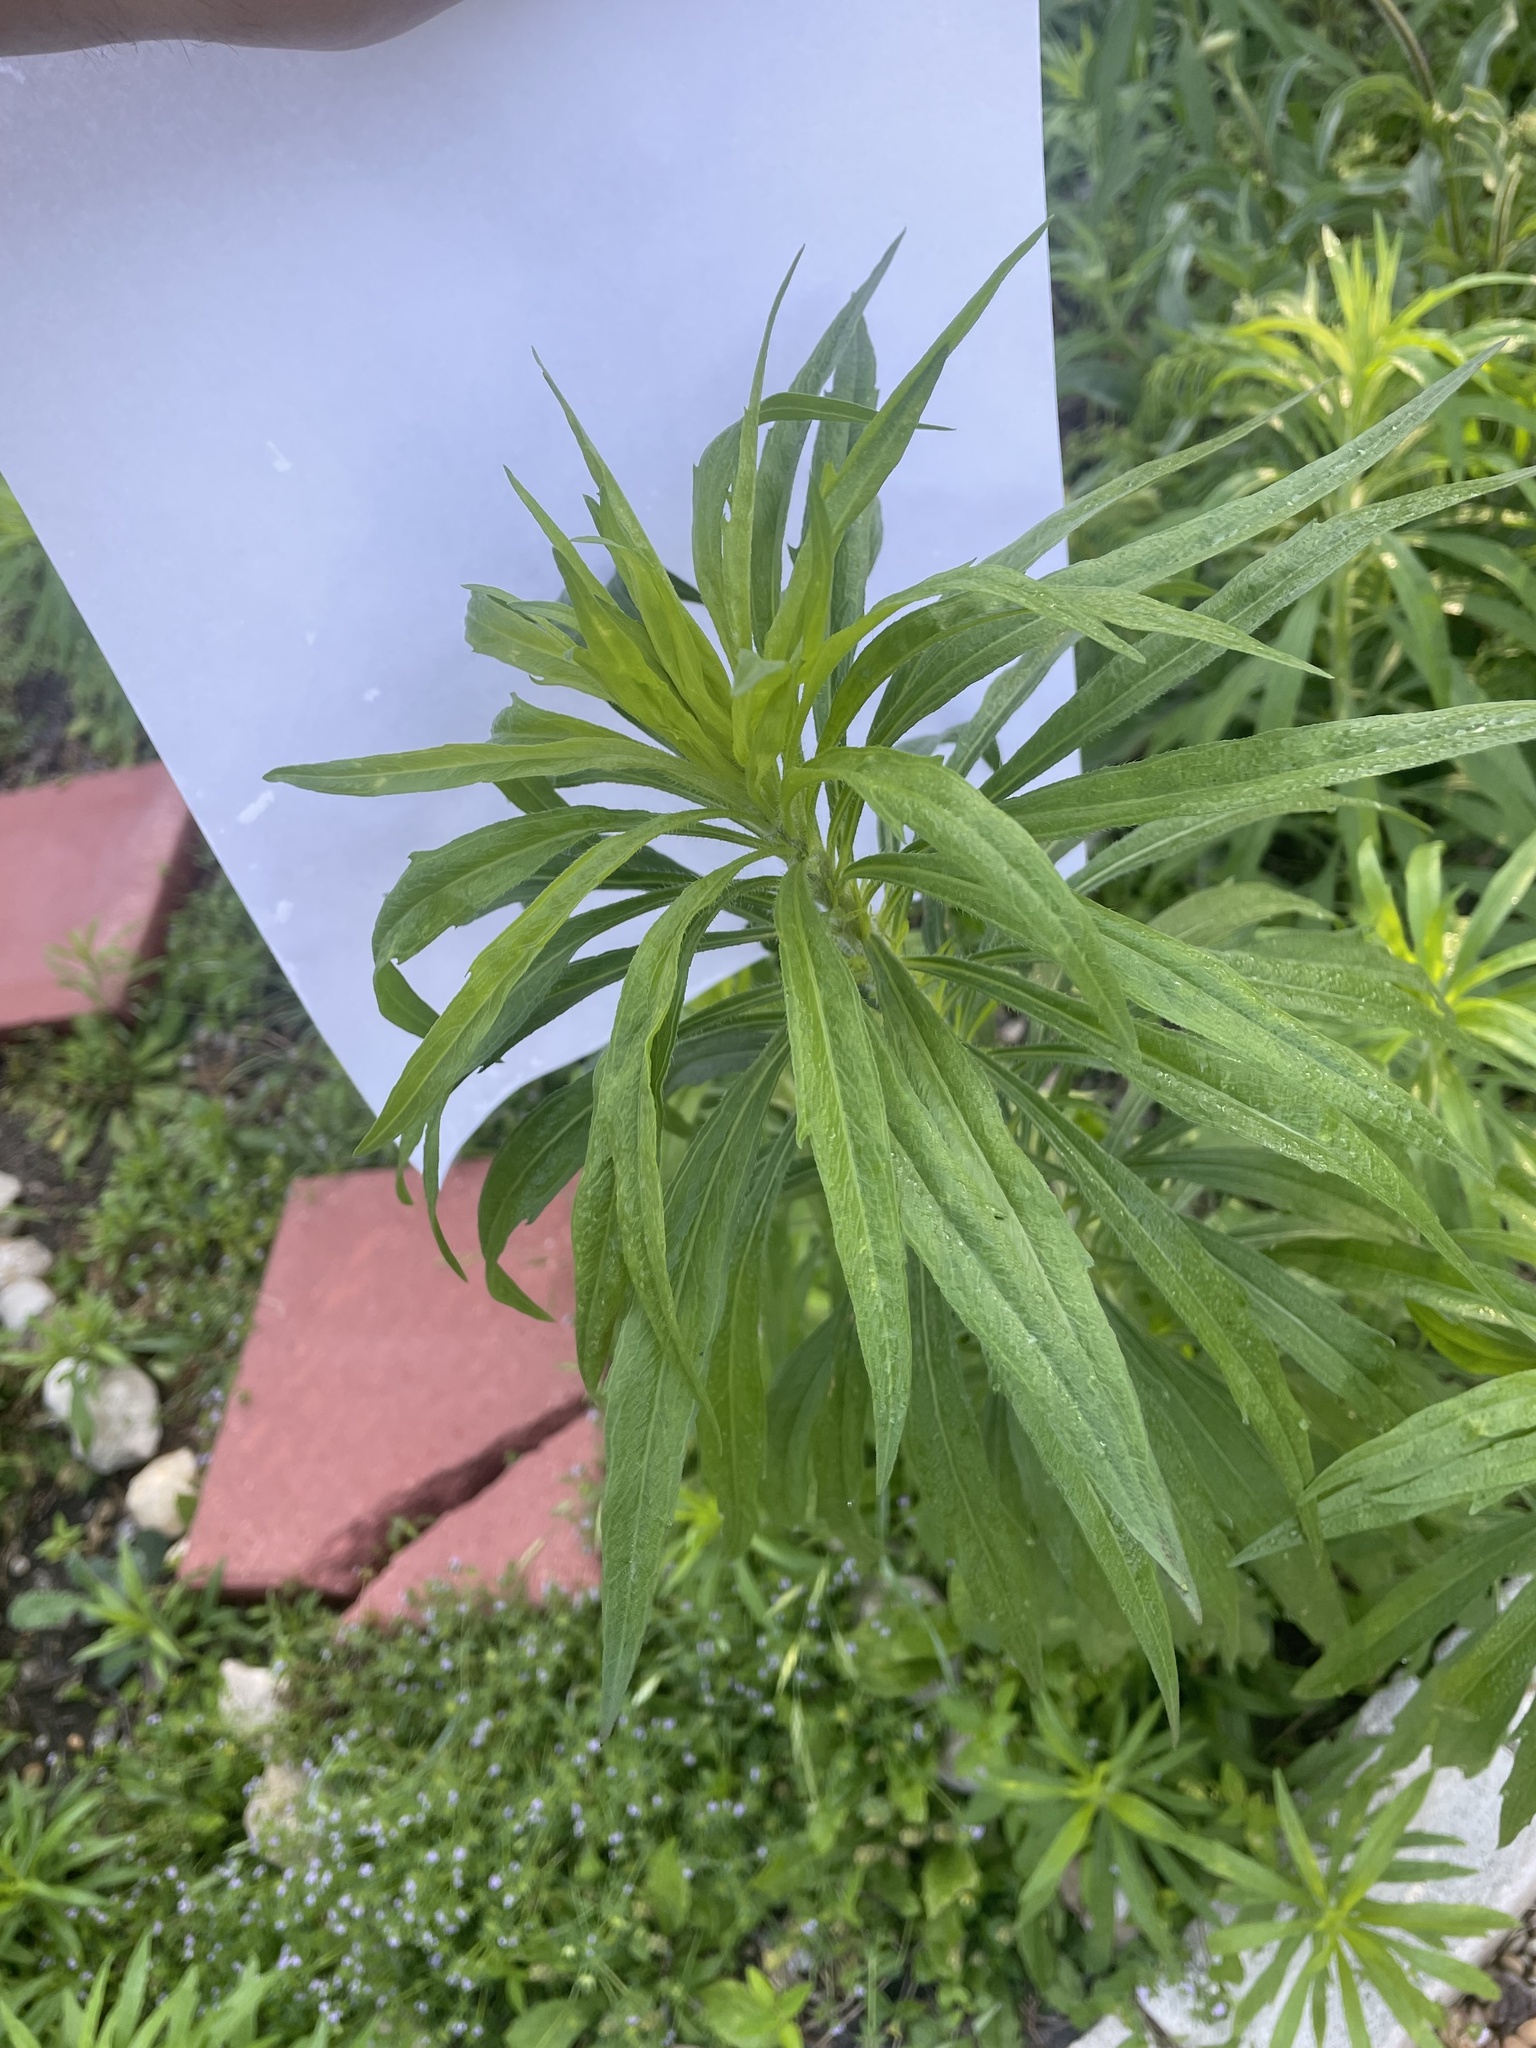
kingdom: Plantae
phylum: Tracheophyta
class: Magnoliopsida
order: Asterales
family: Asteraceae
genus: Erigeron
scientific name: Erigeron canadensis
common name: Canadian fleabane
